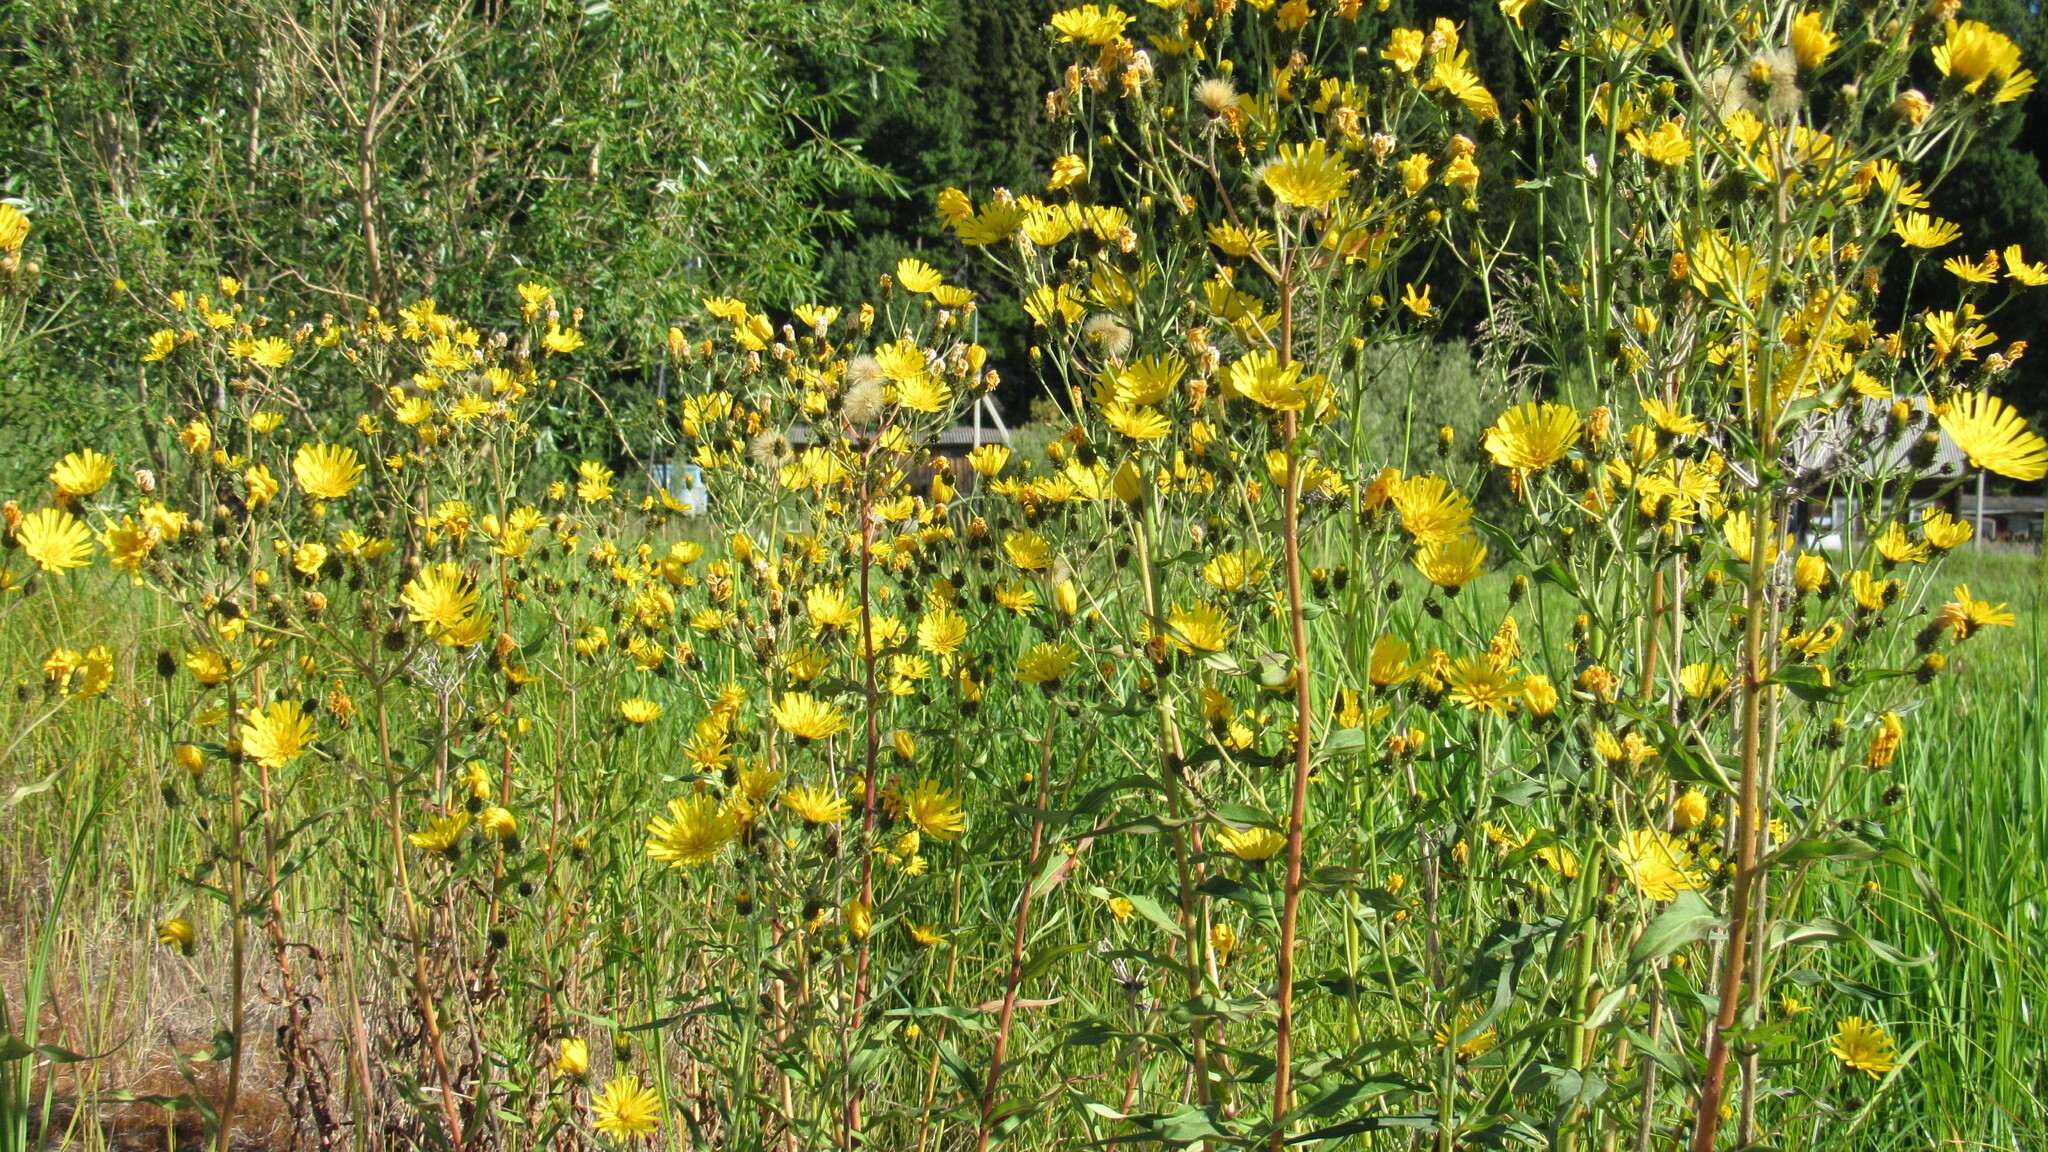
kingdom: Plantae
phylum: Tracheophyta
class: Magnoliopsida
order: Asterales
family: Asteraceae
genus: Hieracium
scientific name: Hieracium umbellatum
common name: Northern hawkweed
